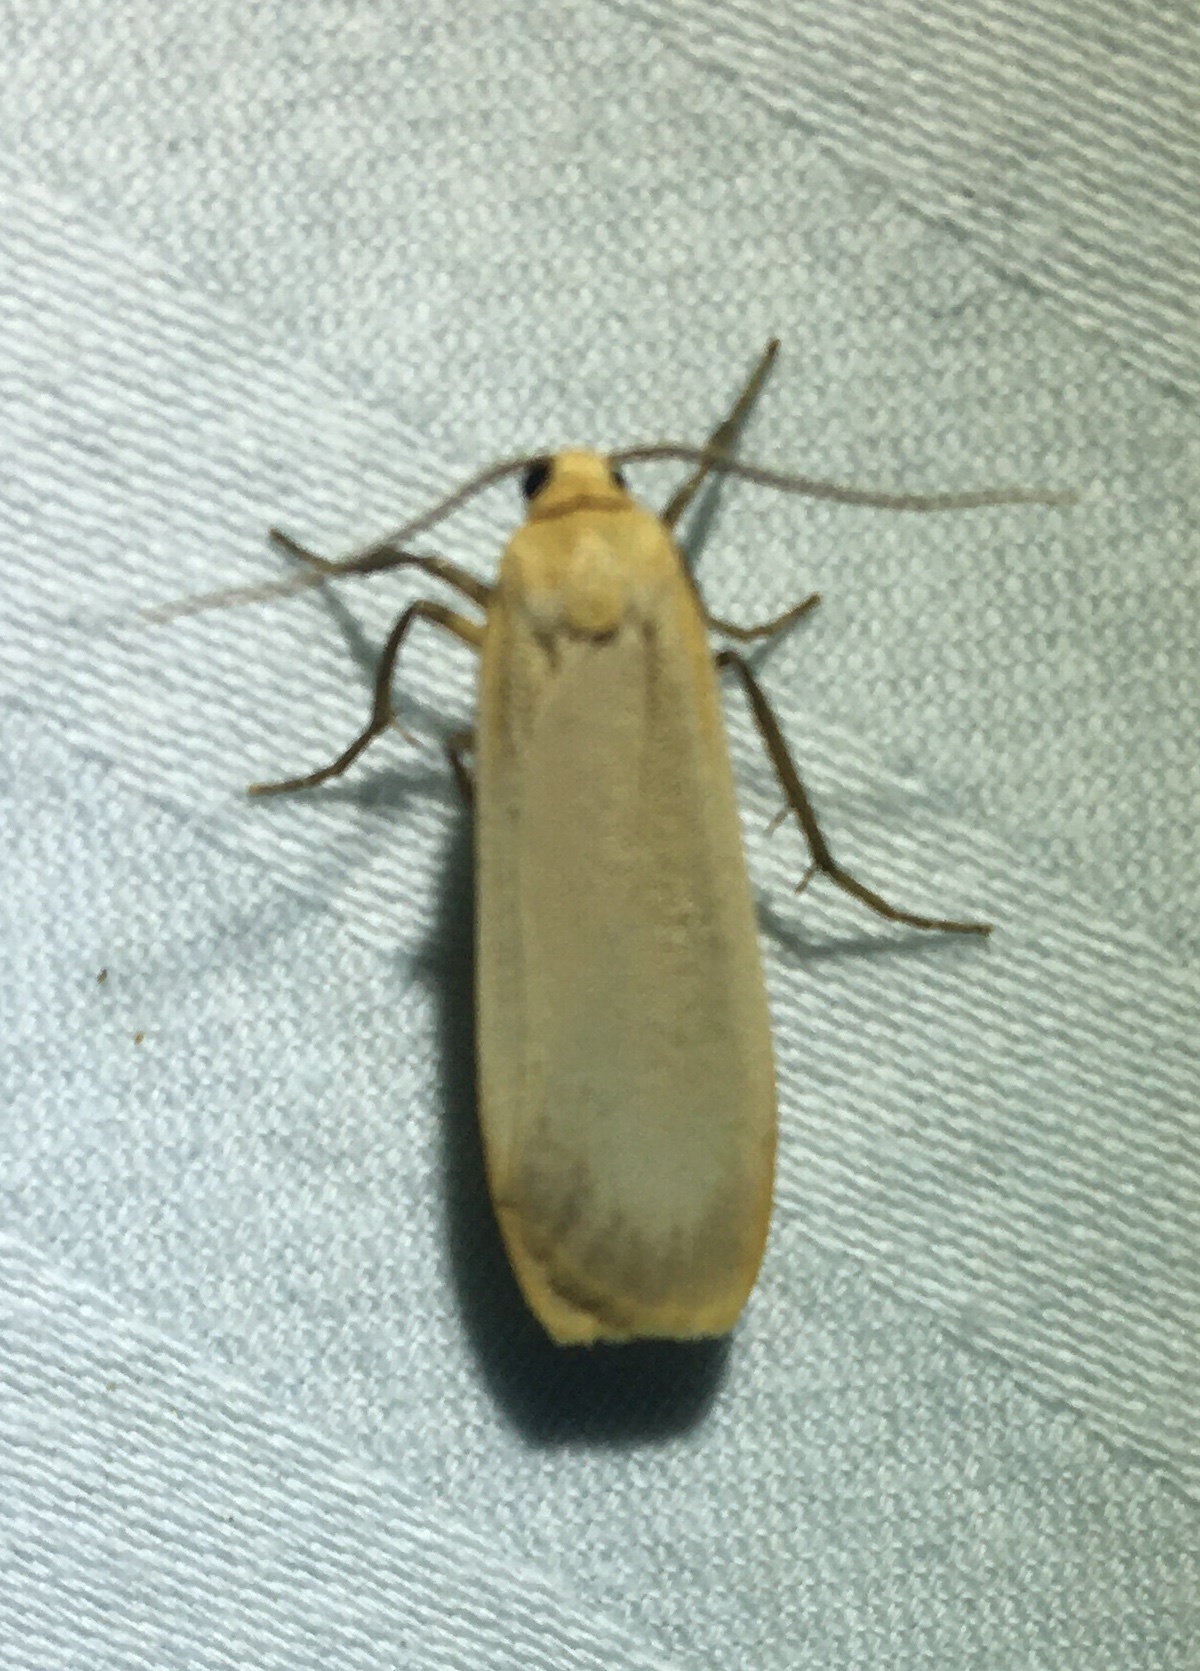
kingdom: Animalia
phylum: Arthropoda
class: Insecta
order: Lepidoptera
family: Erebidae
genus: Katha
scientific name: Katha depressa
